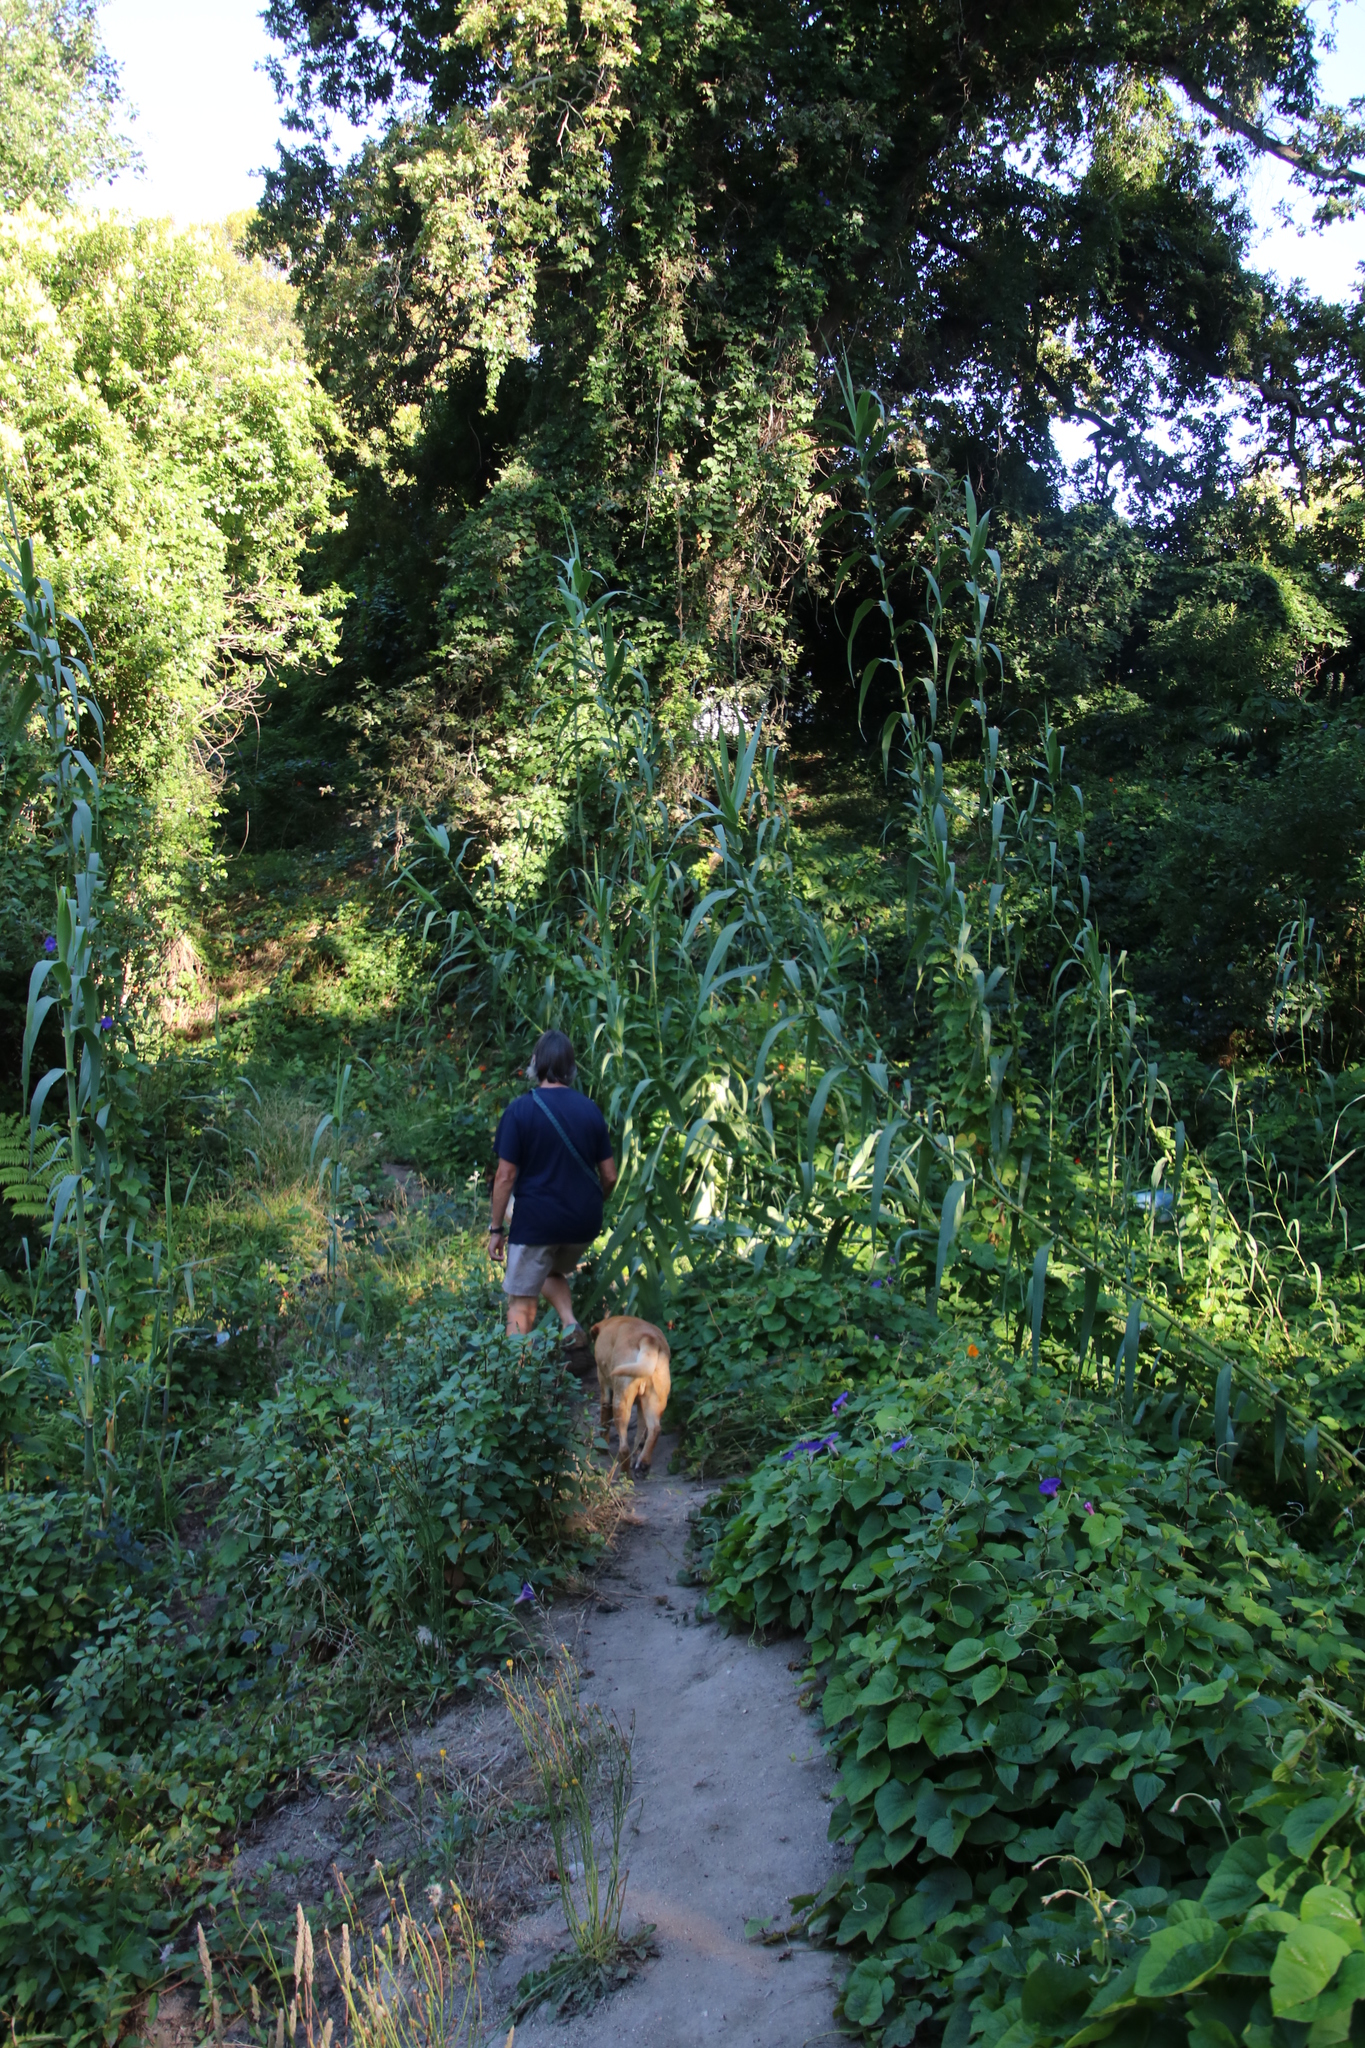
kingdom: Plantae
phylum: Tracheophyta
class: Liliopsida
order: Poales
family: Poaceae
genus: Arundo
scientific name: Arundo donax
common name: Giant reed
